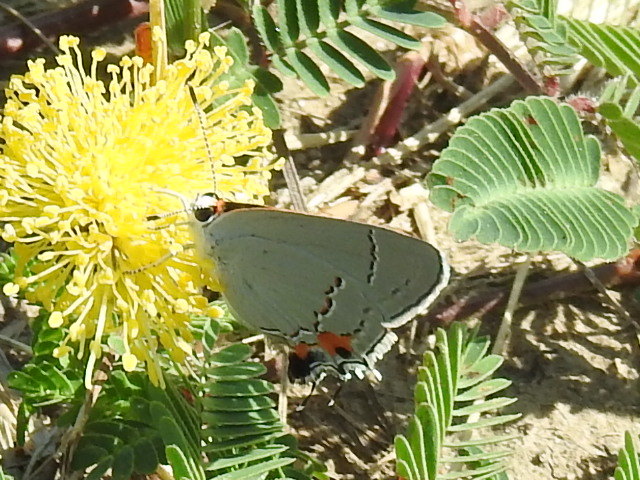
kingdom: Animalia
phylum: Arthropoda
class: Insecta
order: Lepidoptera
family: Lycaenidae
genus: Strymon
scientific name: Strymon melinus
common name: Gray hairstreak
